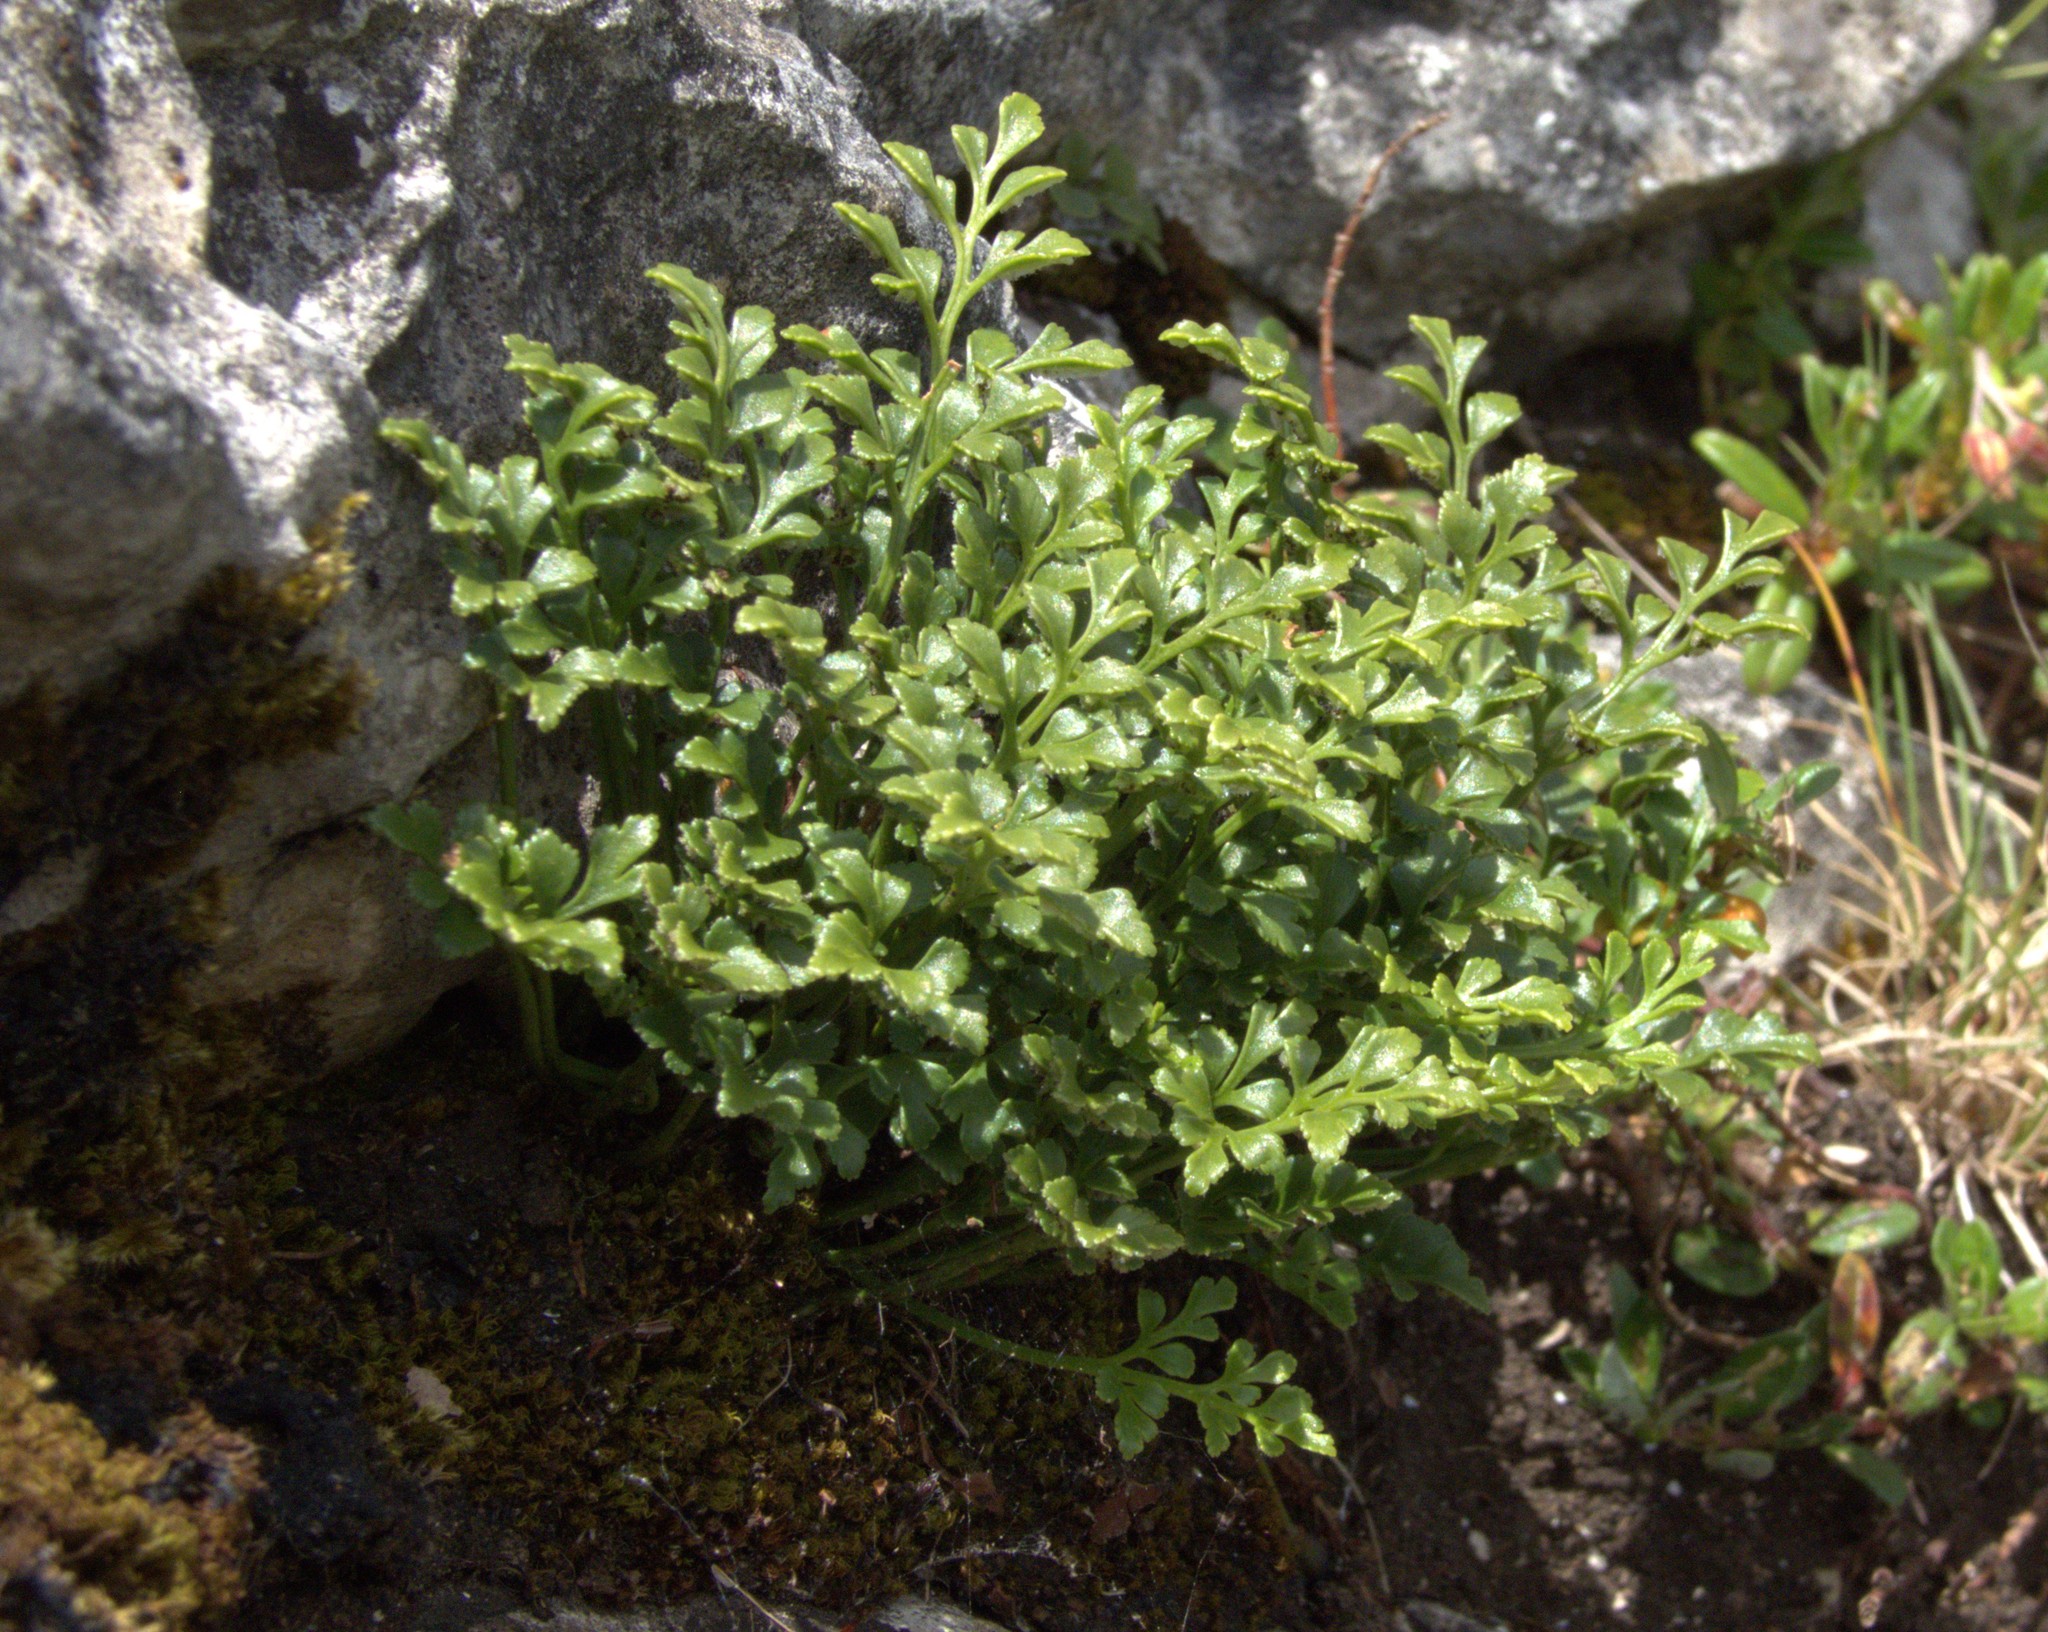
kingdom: Plantae
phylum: Tracheophyta
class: Polypodiopsida
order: Polypodiales
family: Aspleniaceae
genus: Asplenium
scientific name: Asplenium ruta-muraria
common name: Wall-rue
